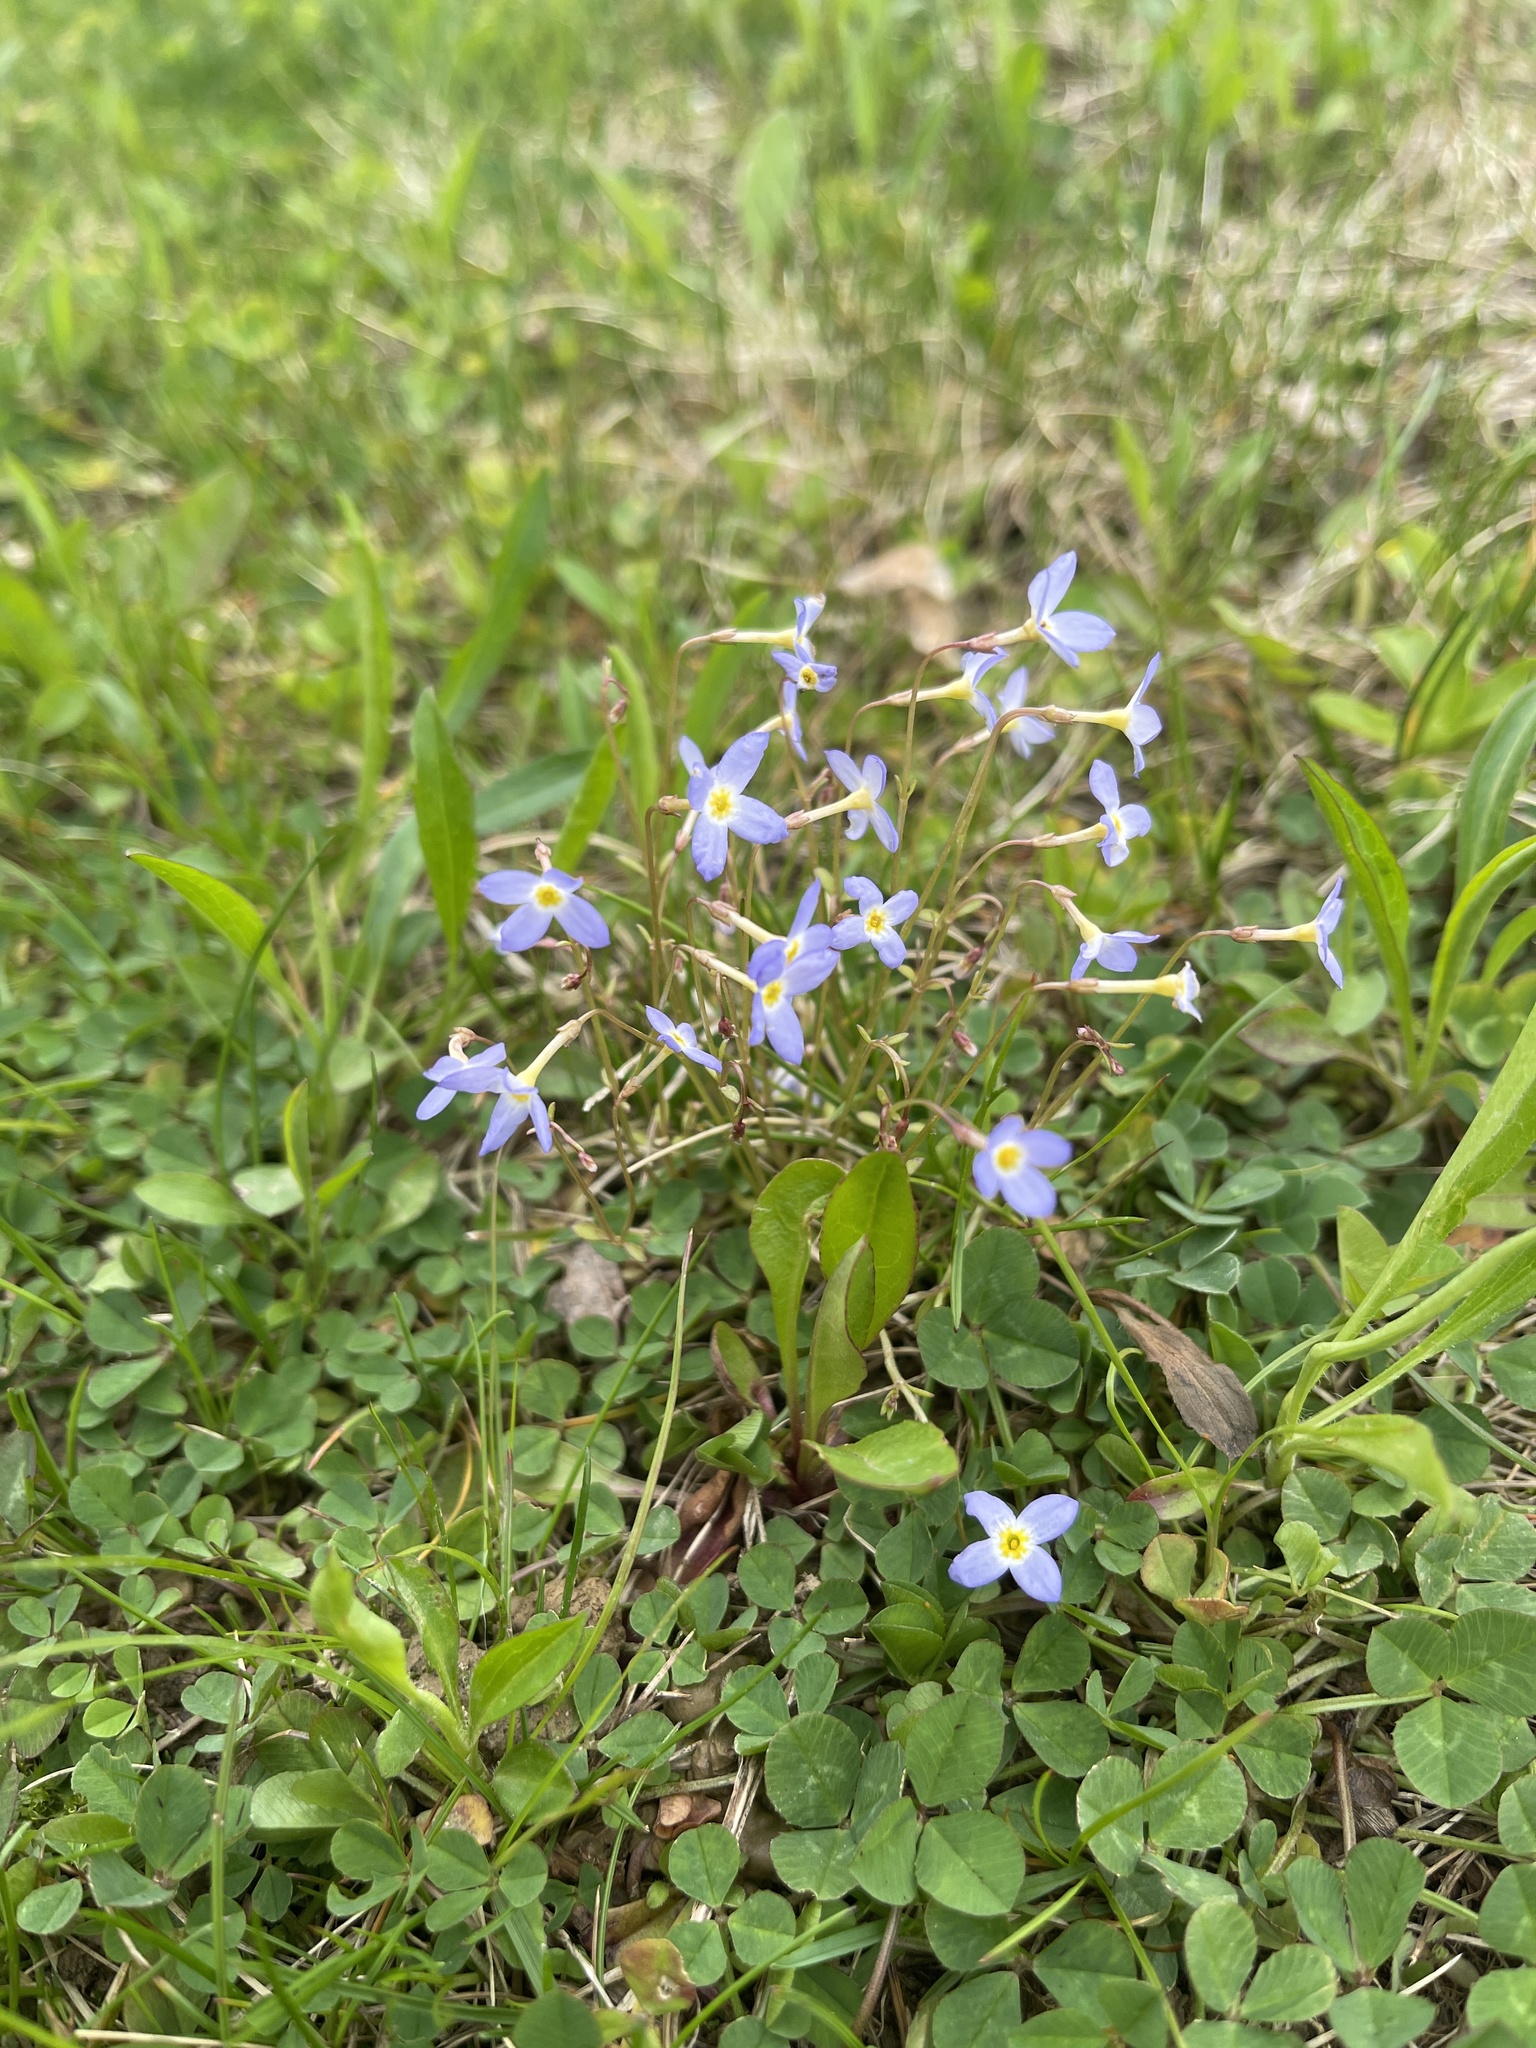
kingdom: Plantae
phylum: Tracheophyta
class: Magnoliopsida
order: Gentianales
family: Rubiaceae
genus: Houstonia
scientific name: Houstonia caerulea
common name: Bluets
